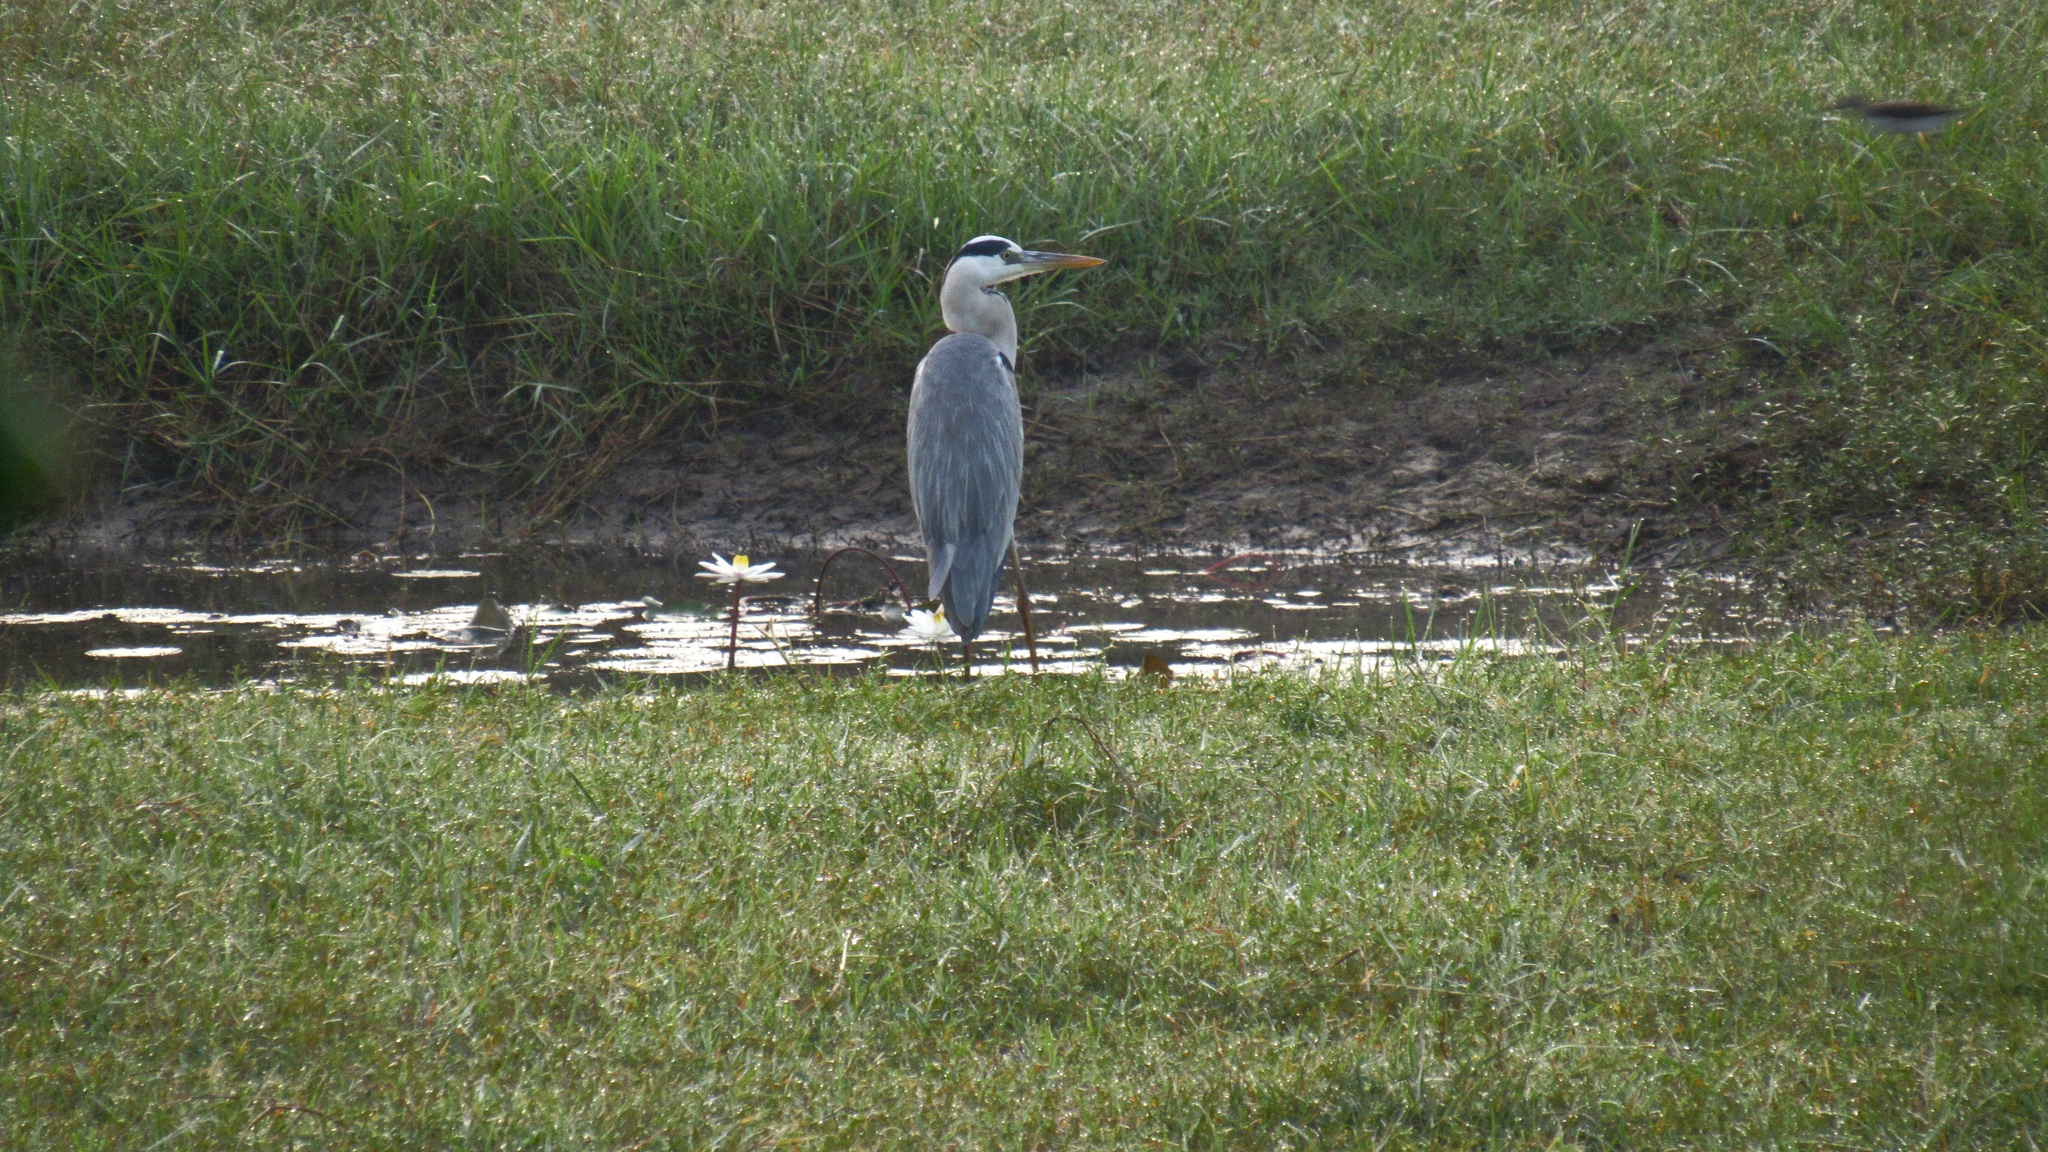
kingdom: Animalia
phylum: Chordata
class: Aves
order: Pelecaniformes
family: Ardeidae
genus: Ardea
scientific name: Ardea cinerea
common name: Grey heron
